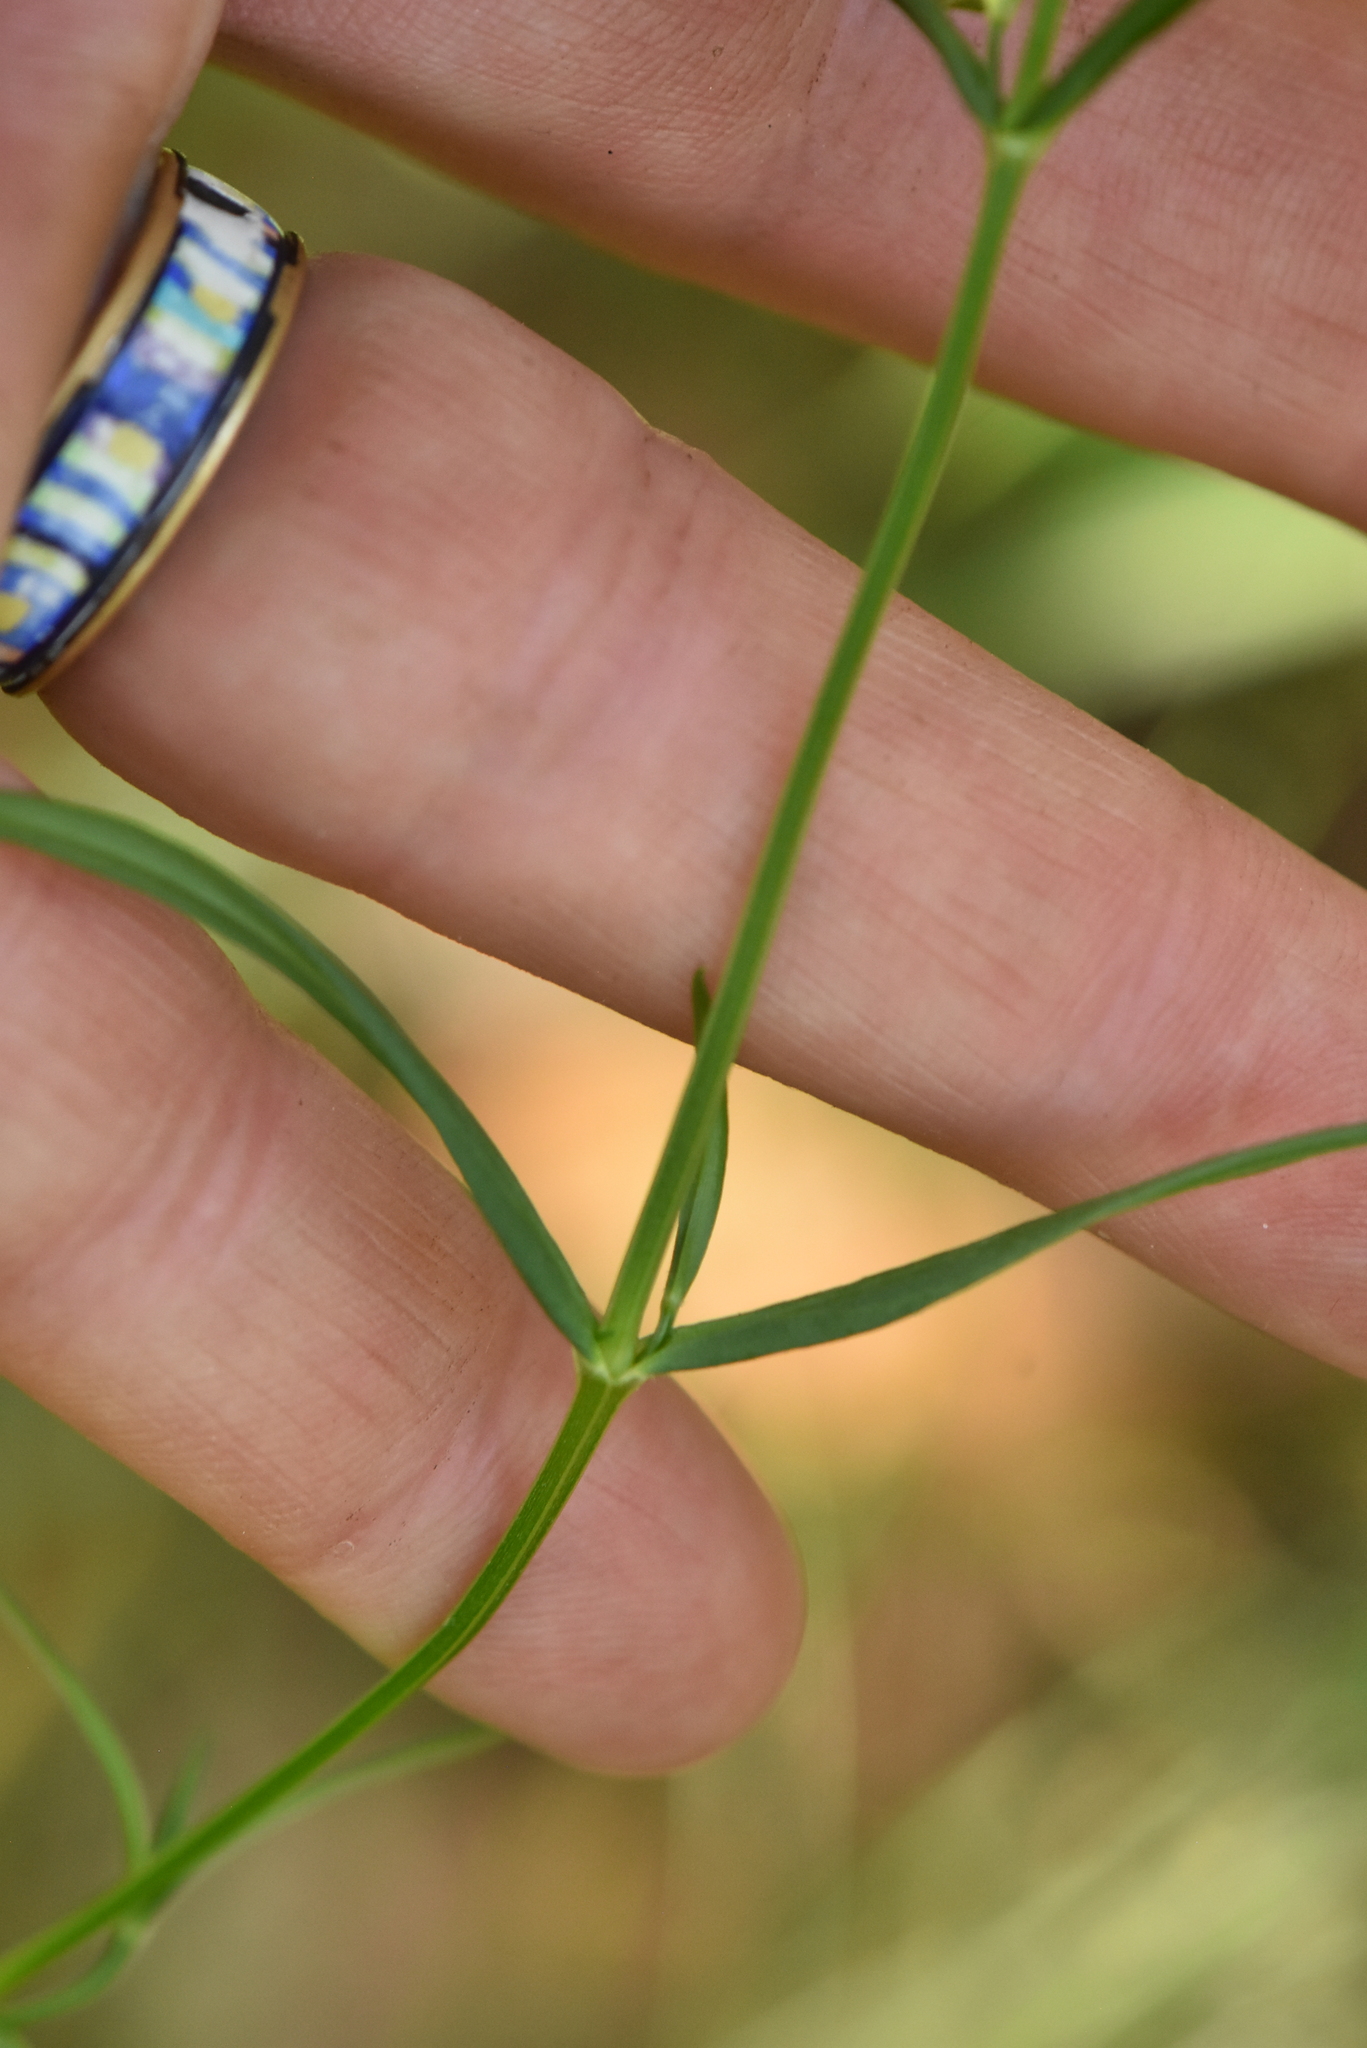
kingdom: Plantae
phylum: Tracheophyta
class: Magnoliopsida
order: Caryophyllales
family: Caryophyllaceae
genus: Stellaria
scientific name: Stellaria graminea
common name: Grass-like starwort
